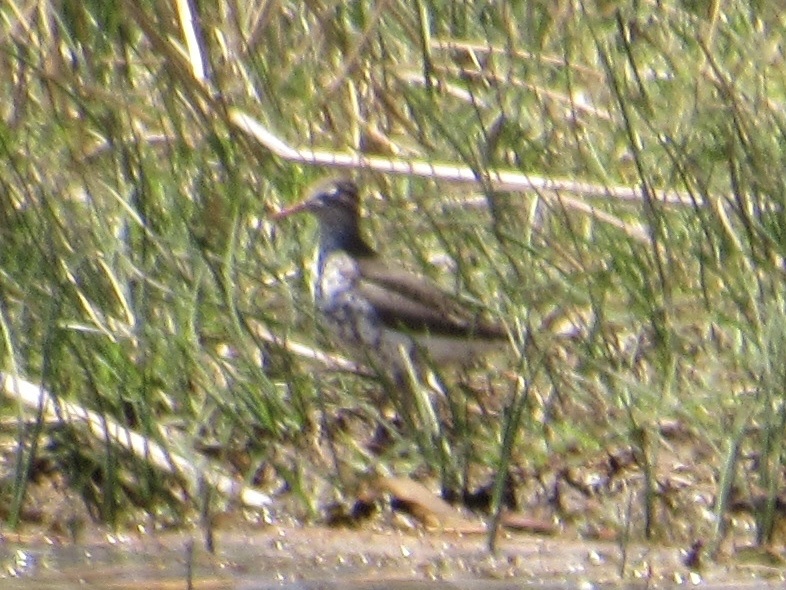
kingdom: Animalia
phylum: Chordata
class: Aves
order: Charadriiformes
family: Scolopacidae
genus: Actitis
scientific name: Actitis macularius
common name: Spotted sandpiper
